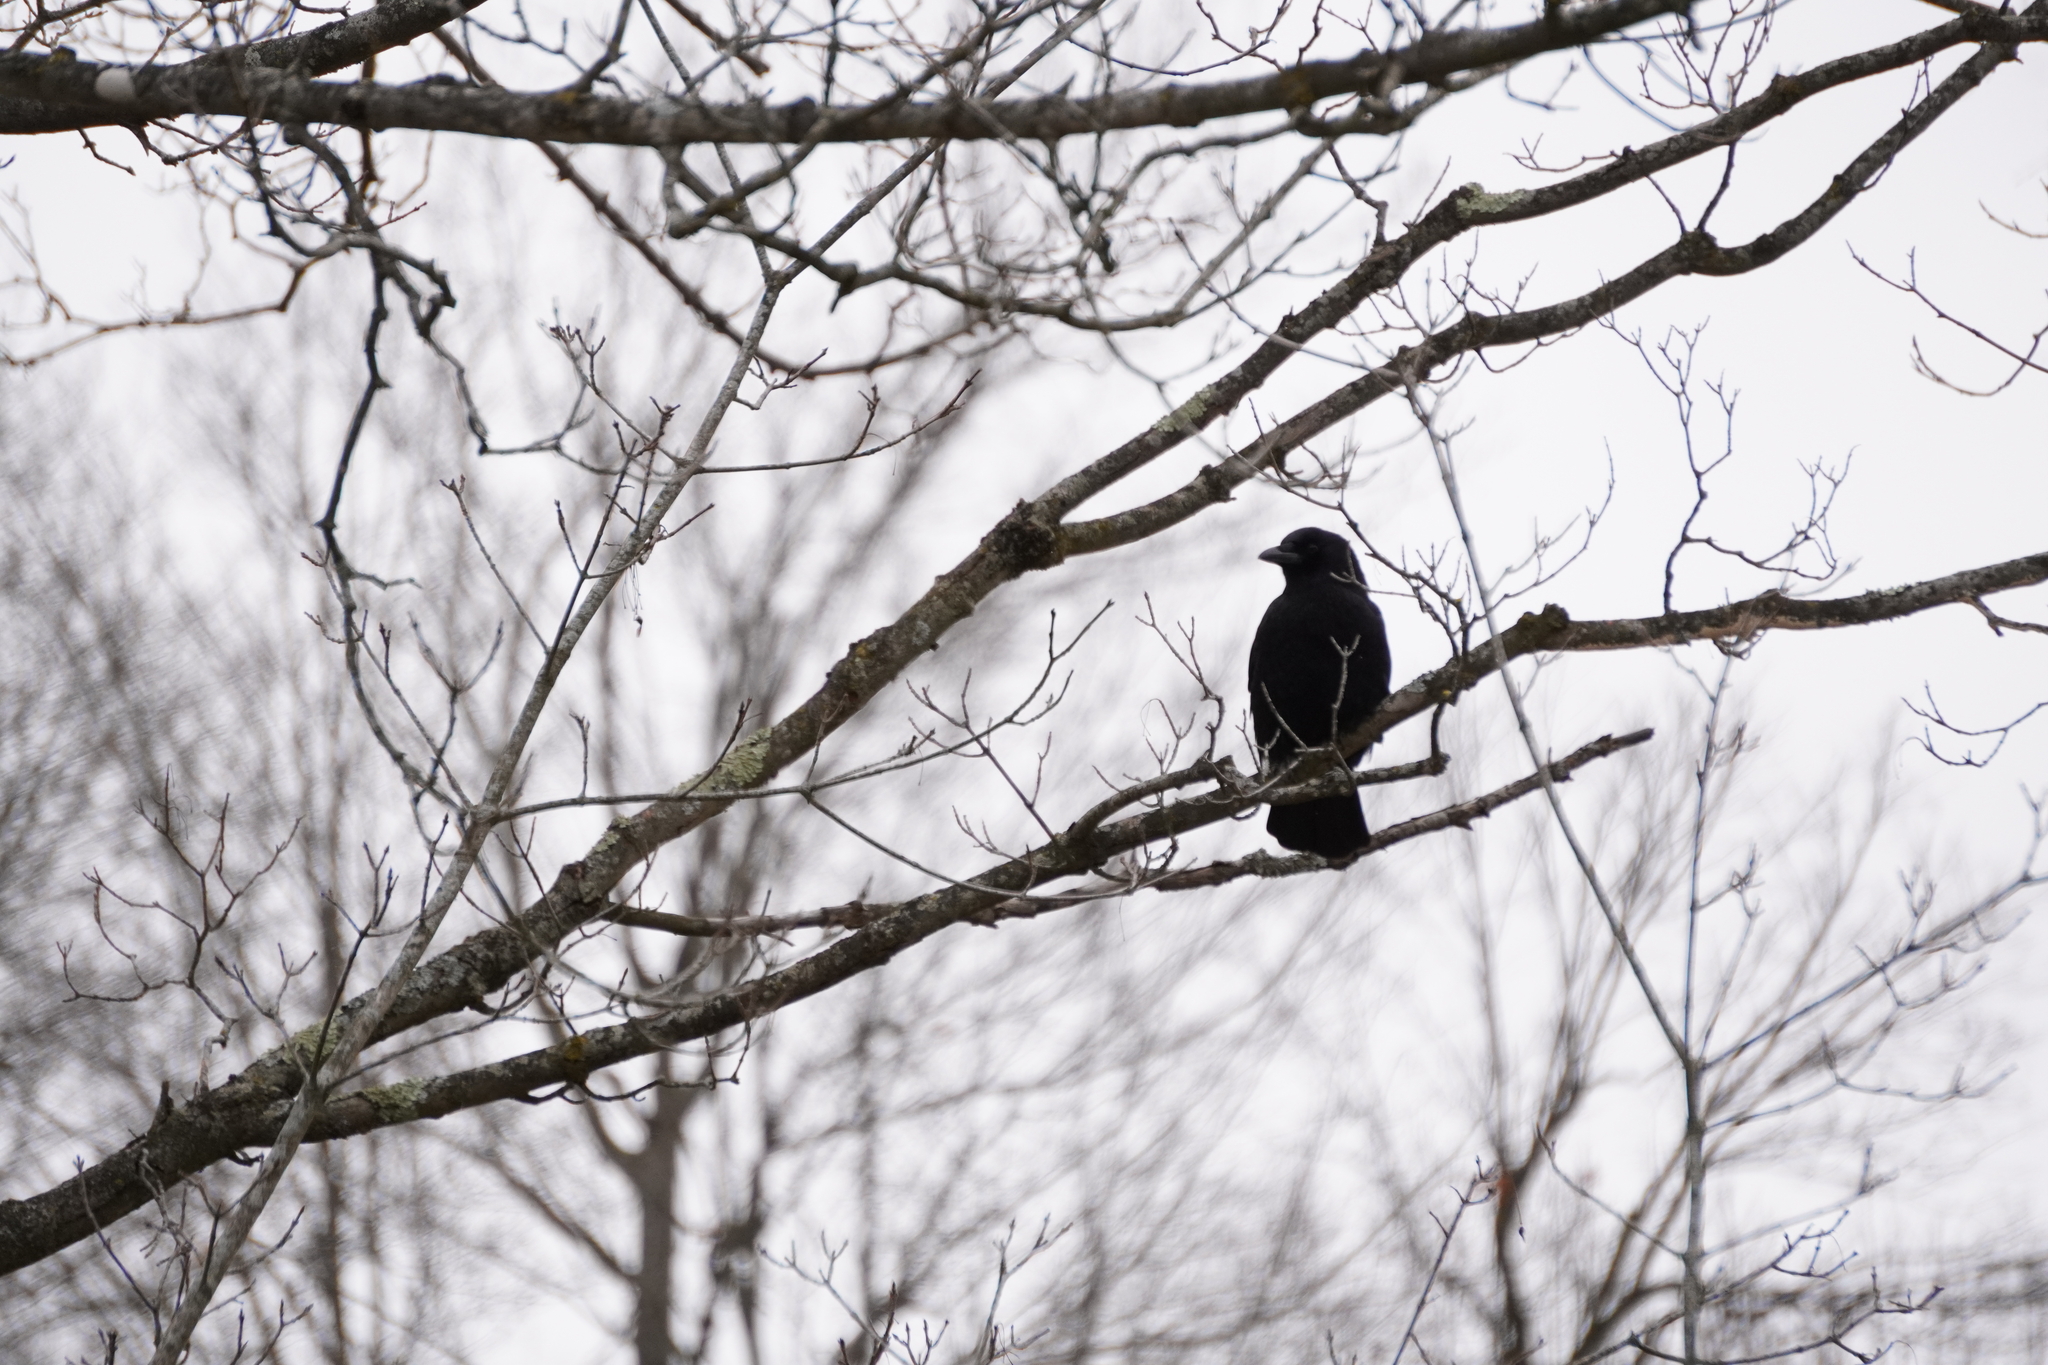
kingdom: Animalia
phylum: Chordata
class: Aves
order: Passeriformes
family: Corvidae
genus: Corvus
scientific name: Corvus brachyrhynchos
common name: American crow
